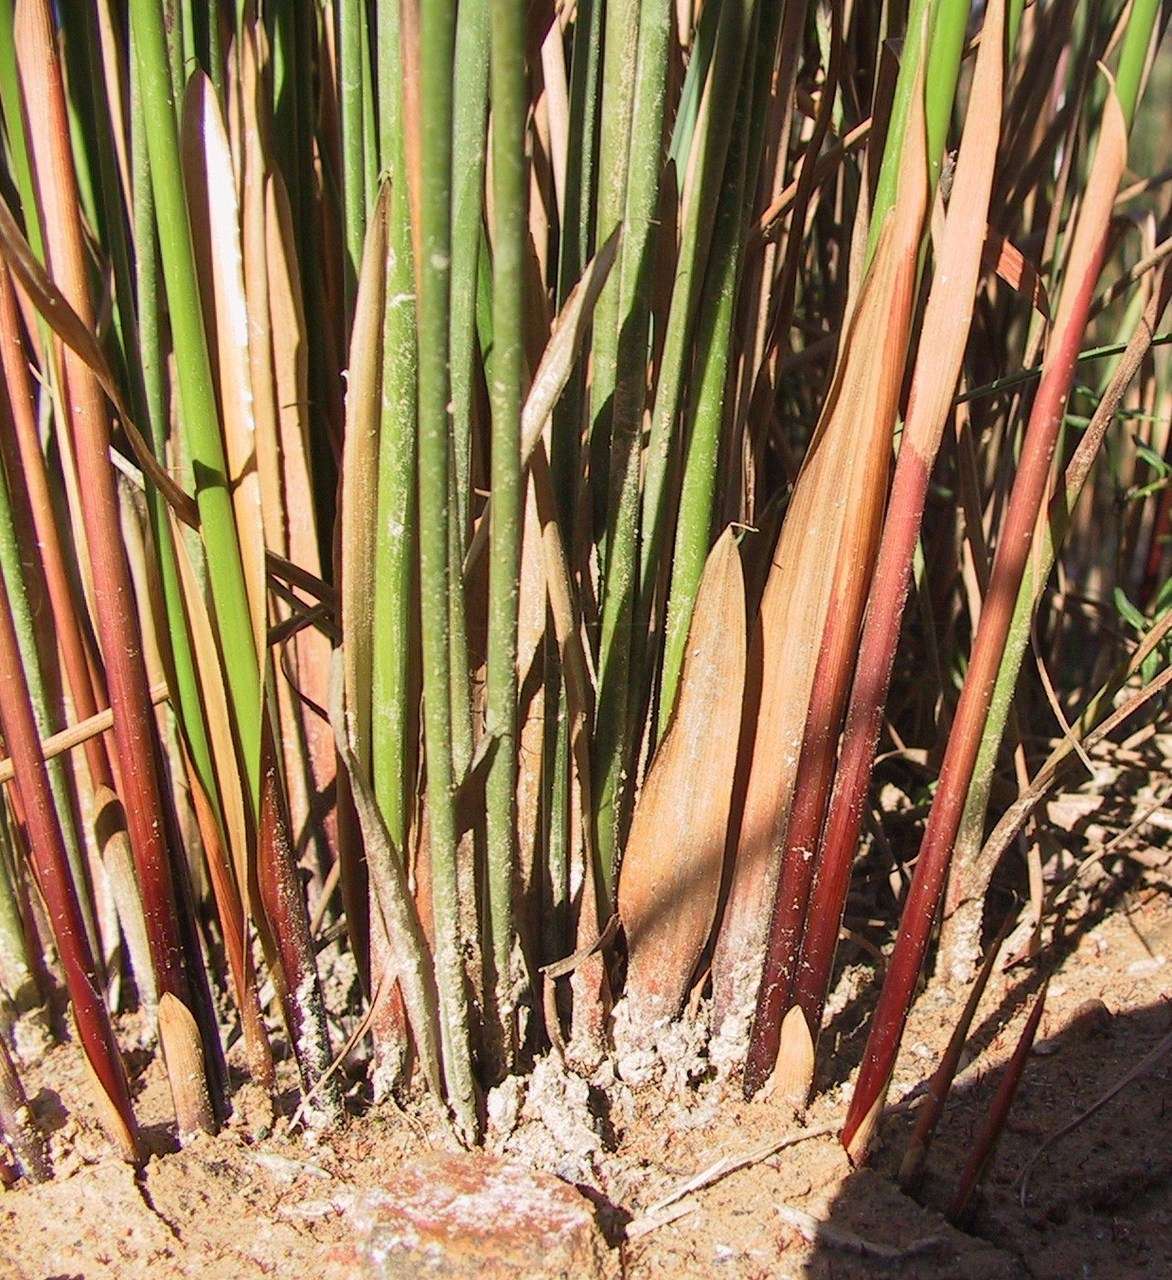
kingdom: Plantae
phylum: Tracheophyta
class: Liliopsida
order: Poales
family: Juncaceae
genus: Juncus
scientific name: Juncus gregiflorus
